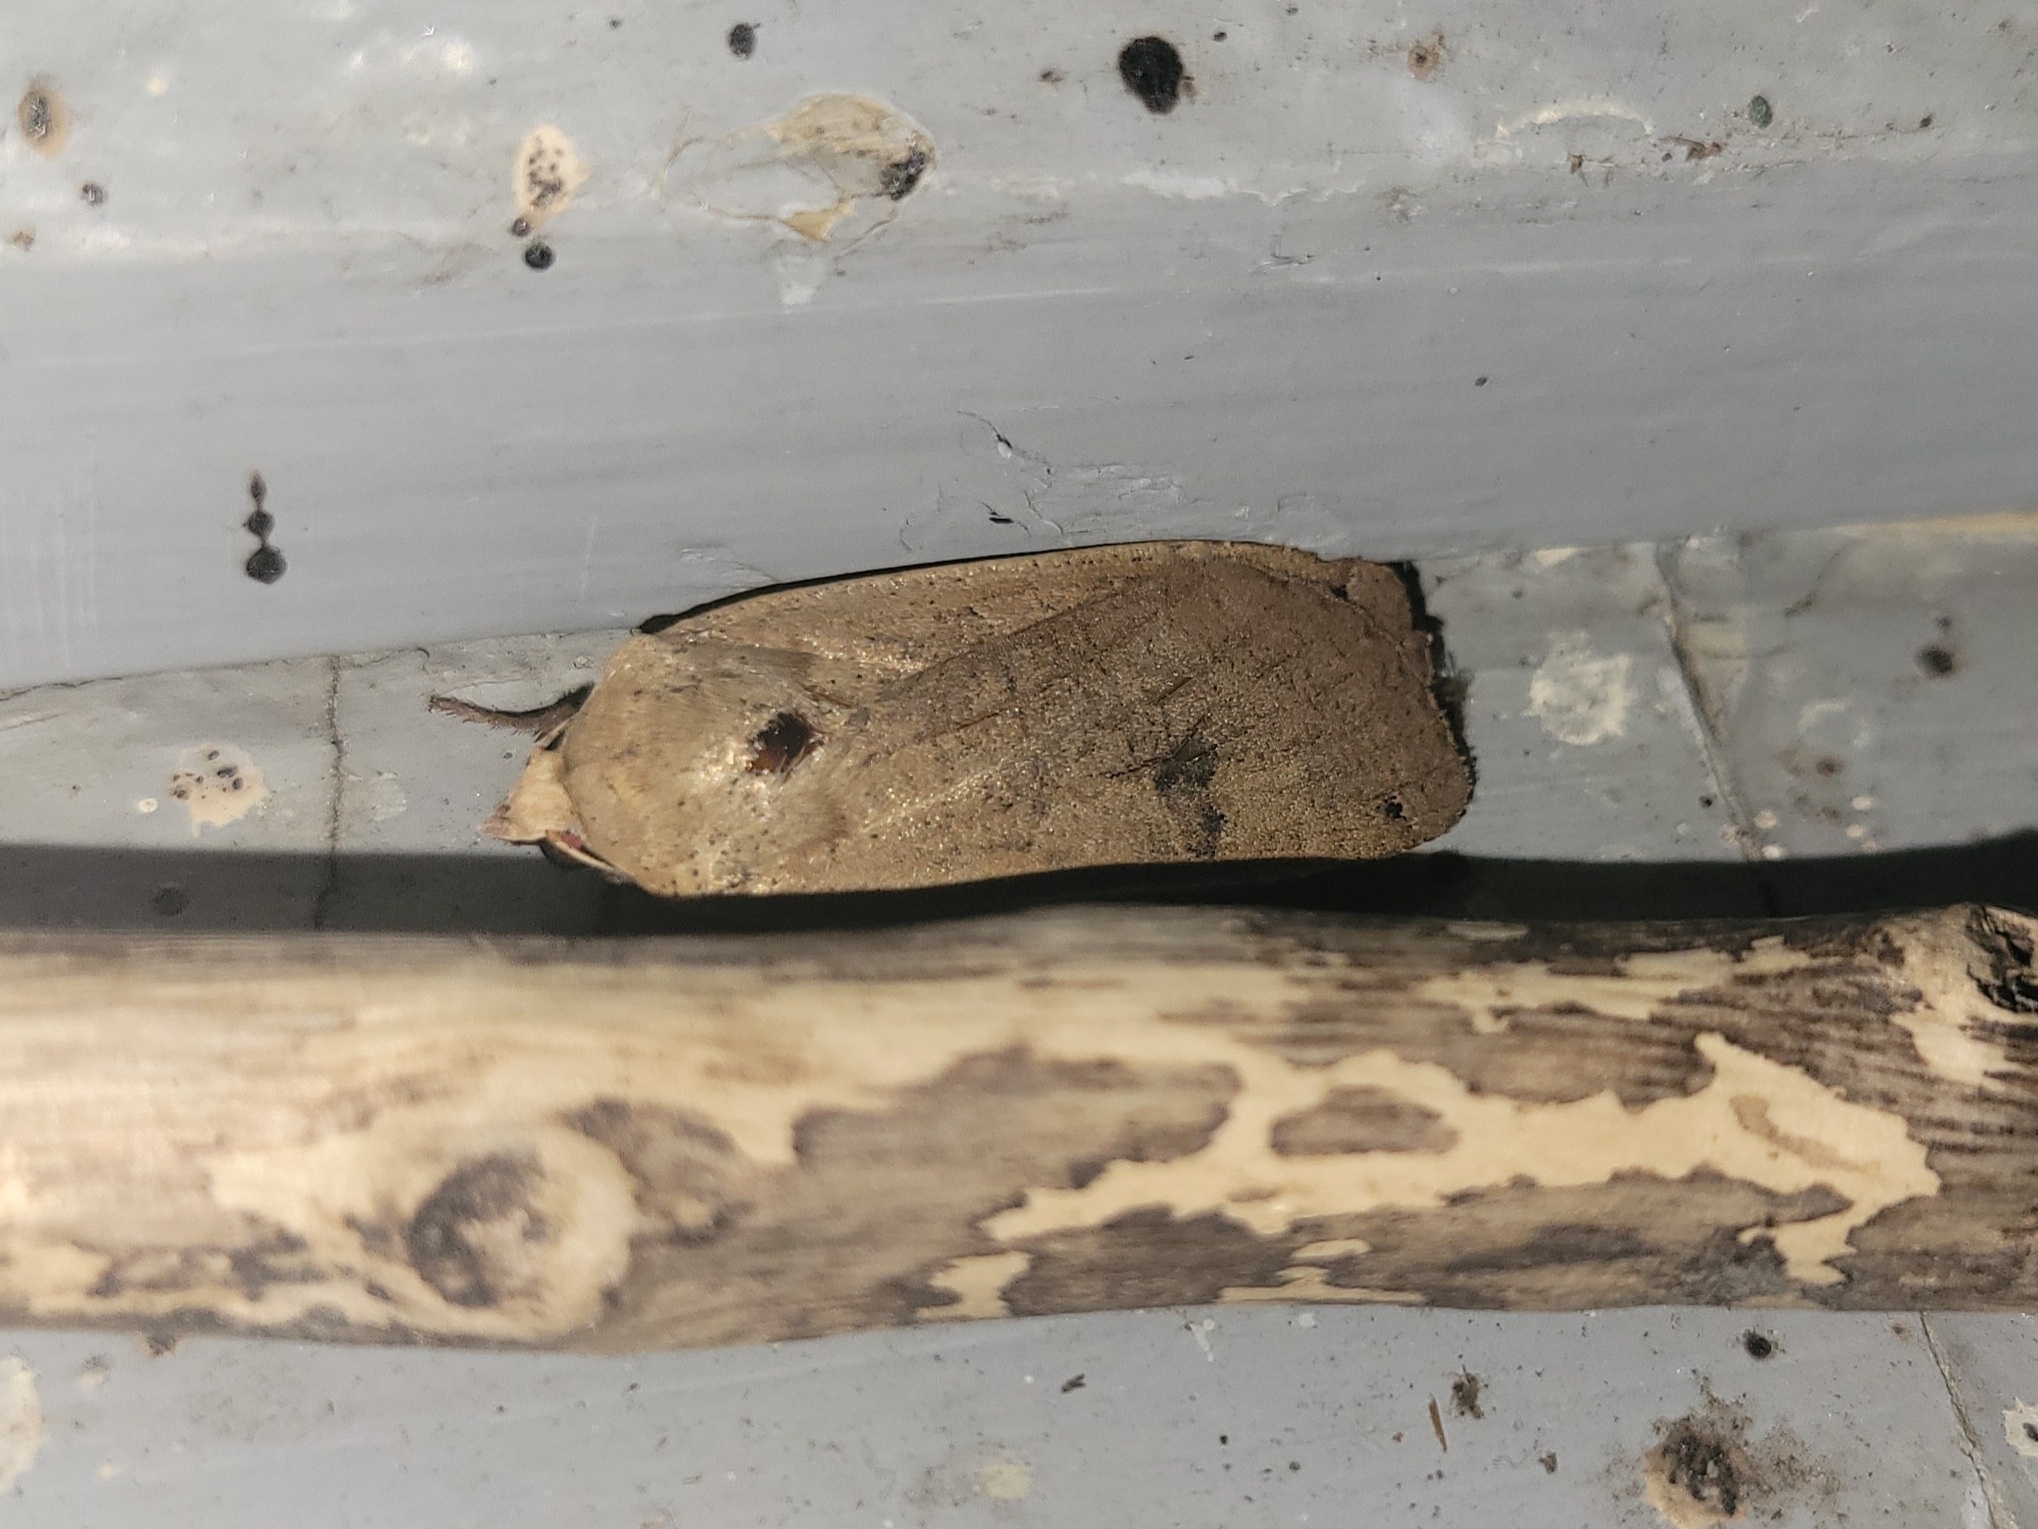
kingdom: Animalia
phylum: Arthropoda
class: Insecta
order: Lepidoptera
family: Noctuidae
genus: Noctua
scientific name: Noctua pronuba
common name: Large yellow underwing
